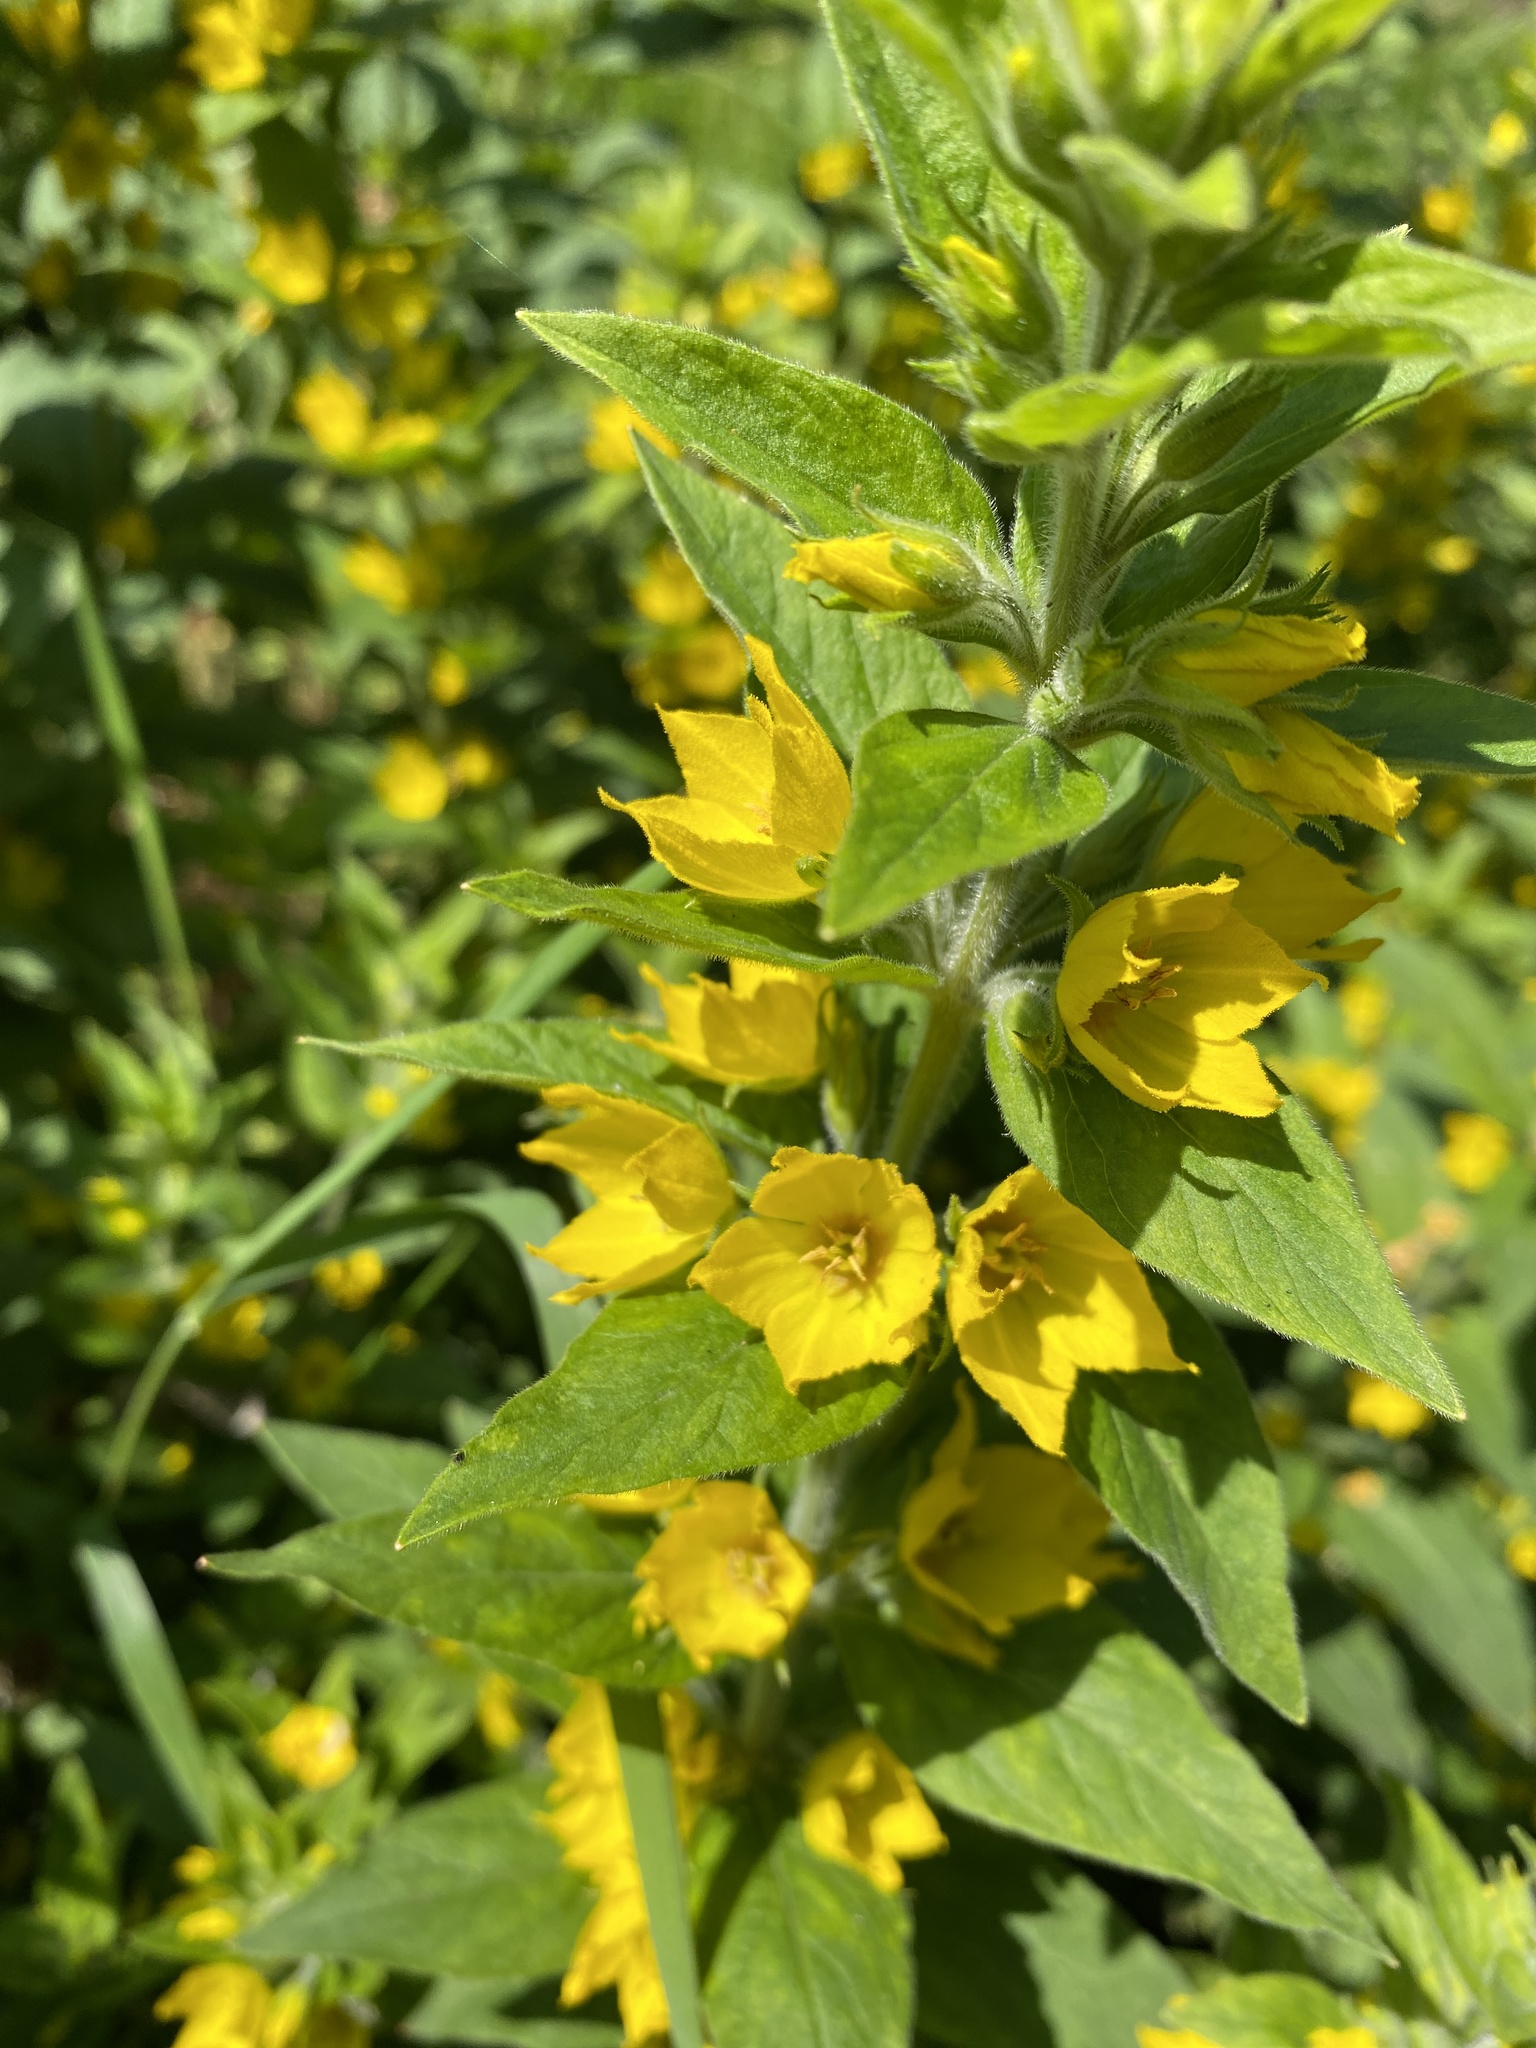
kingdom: Plantae
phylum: Tracheophyta
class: Magnoliopsida
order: Ericales
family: Primulaceae
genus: Lysimachia
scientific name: Lysimachia punctata
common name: Dotted loosestrife
